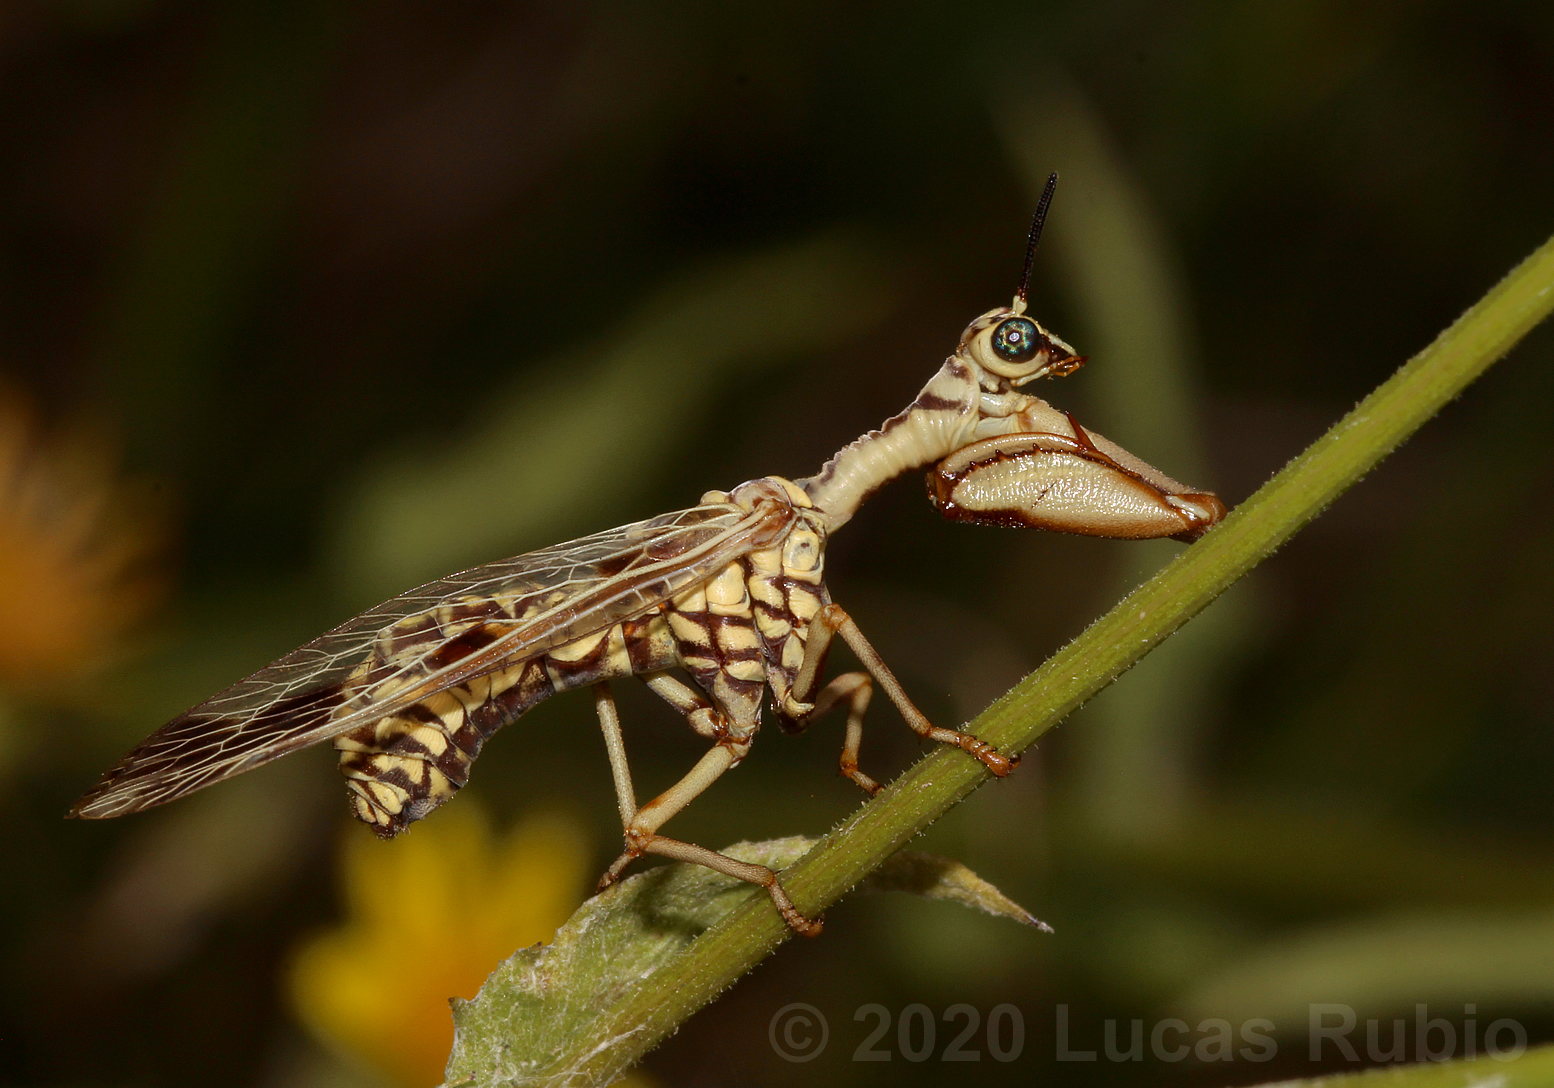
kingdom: Animalia
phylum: Arthropoda
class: Insecta
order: Neuroptera
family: Mantispidae
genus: Paramantispa
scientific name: Paramantispa ambusta
